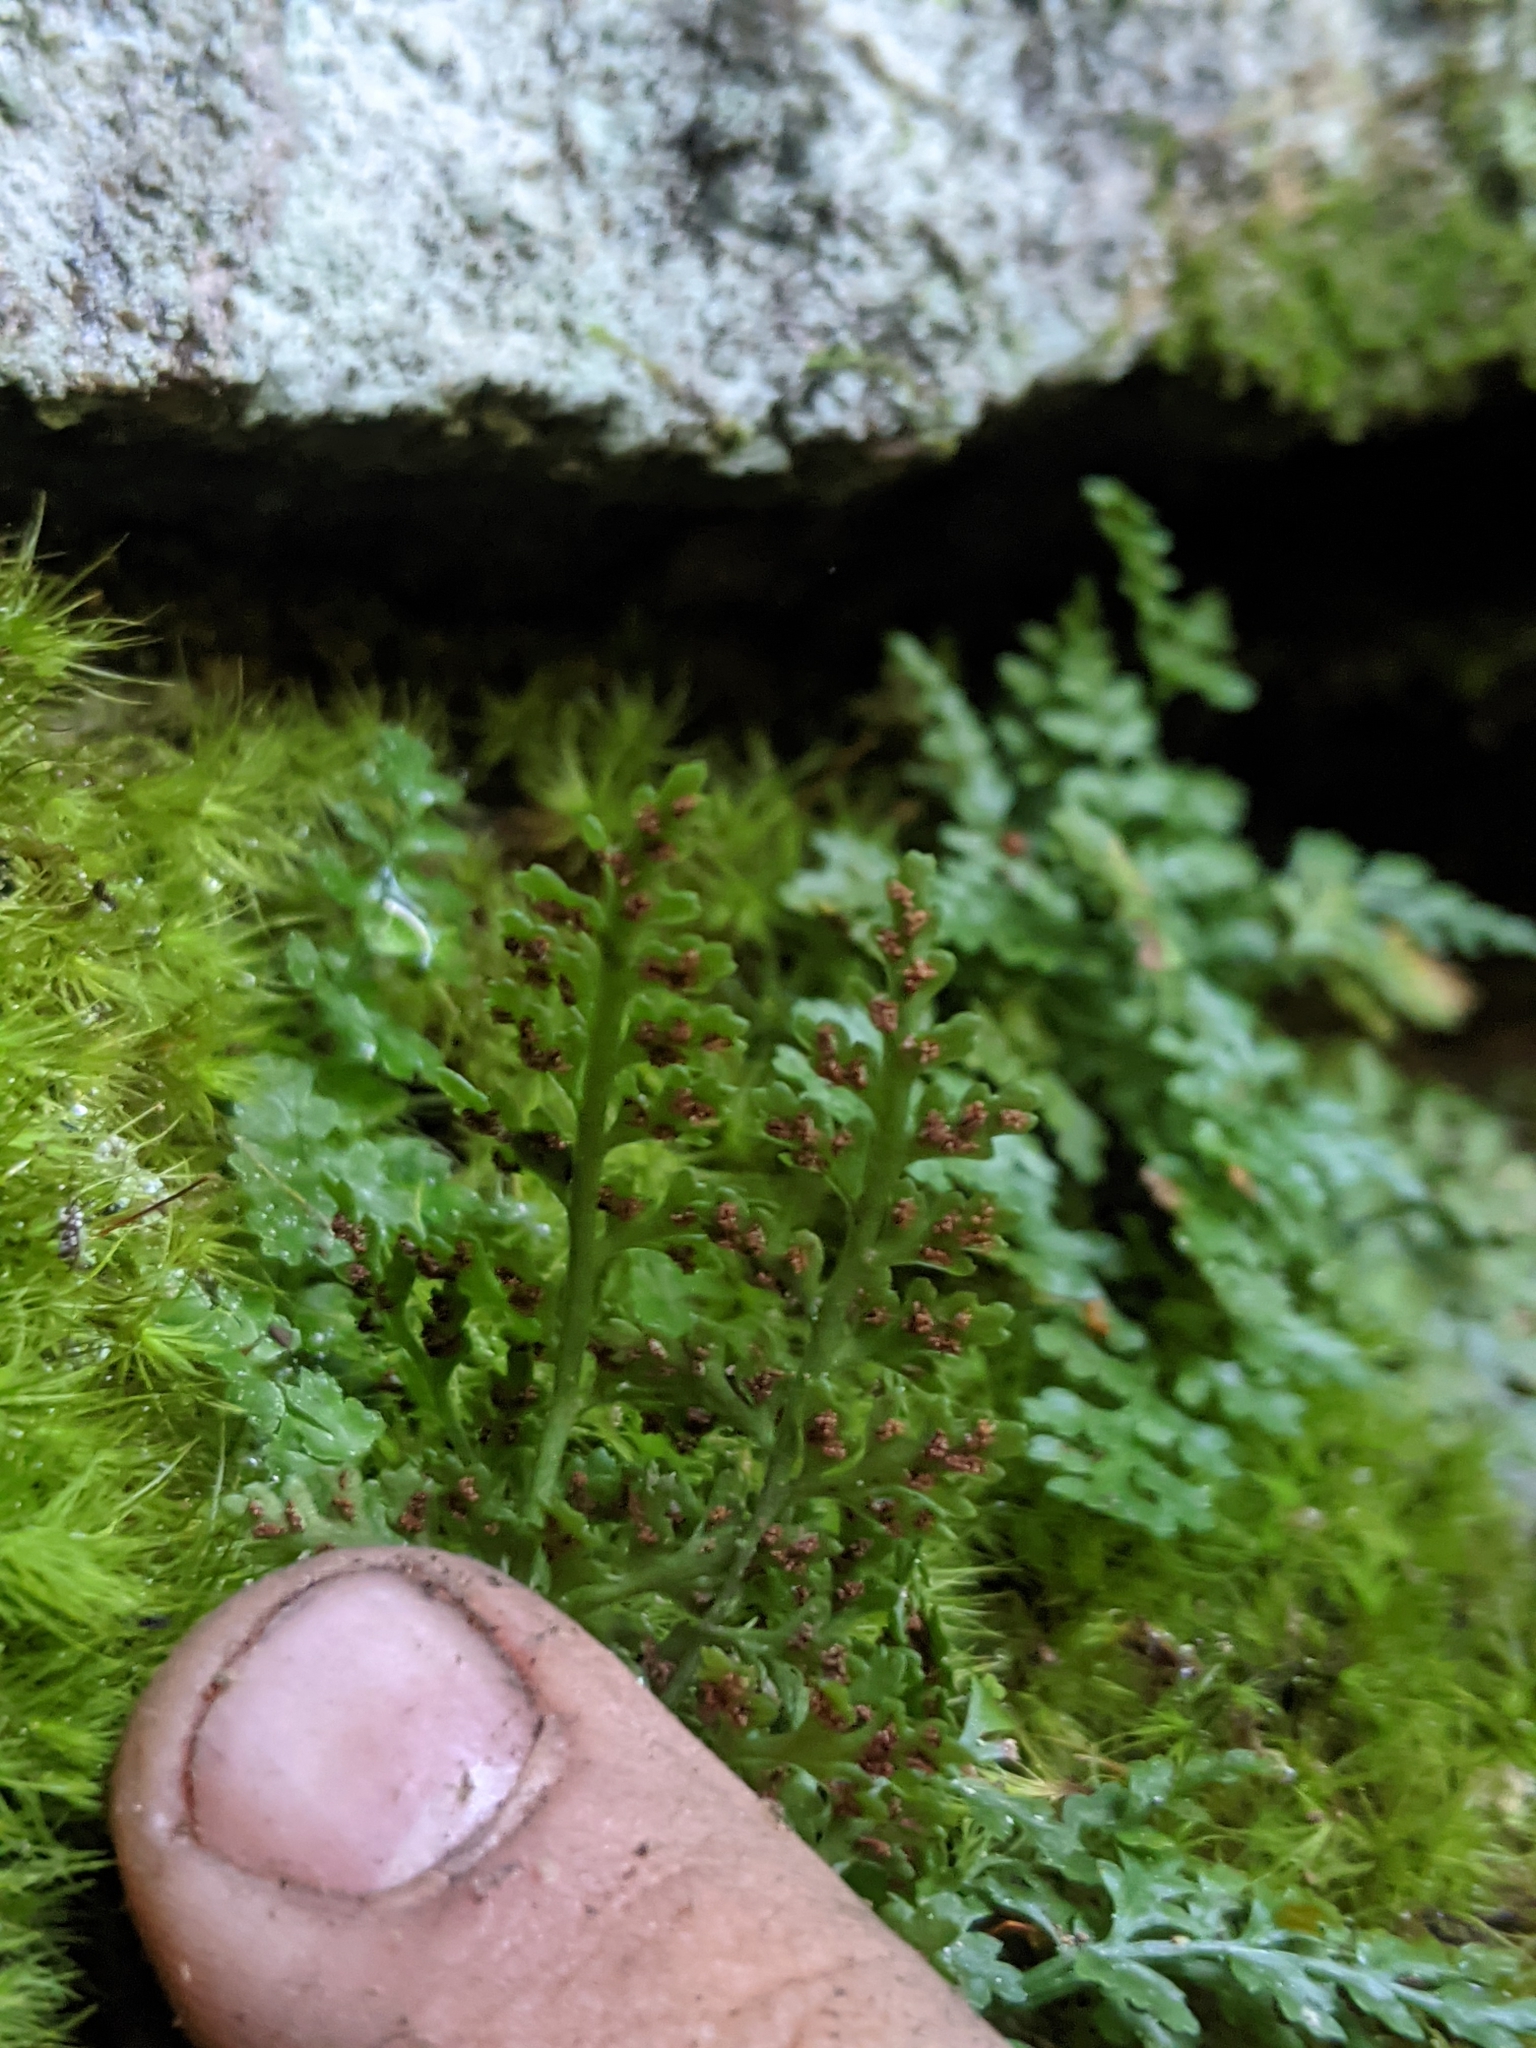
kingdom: Plantae
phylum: Tracheophyta
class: Polypodiopsida
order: Polypodiales
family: Aspleniaceae
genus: Asplenium
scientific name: Asplenium montanum
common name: Mountain spleenwort
